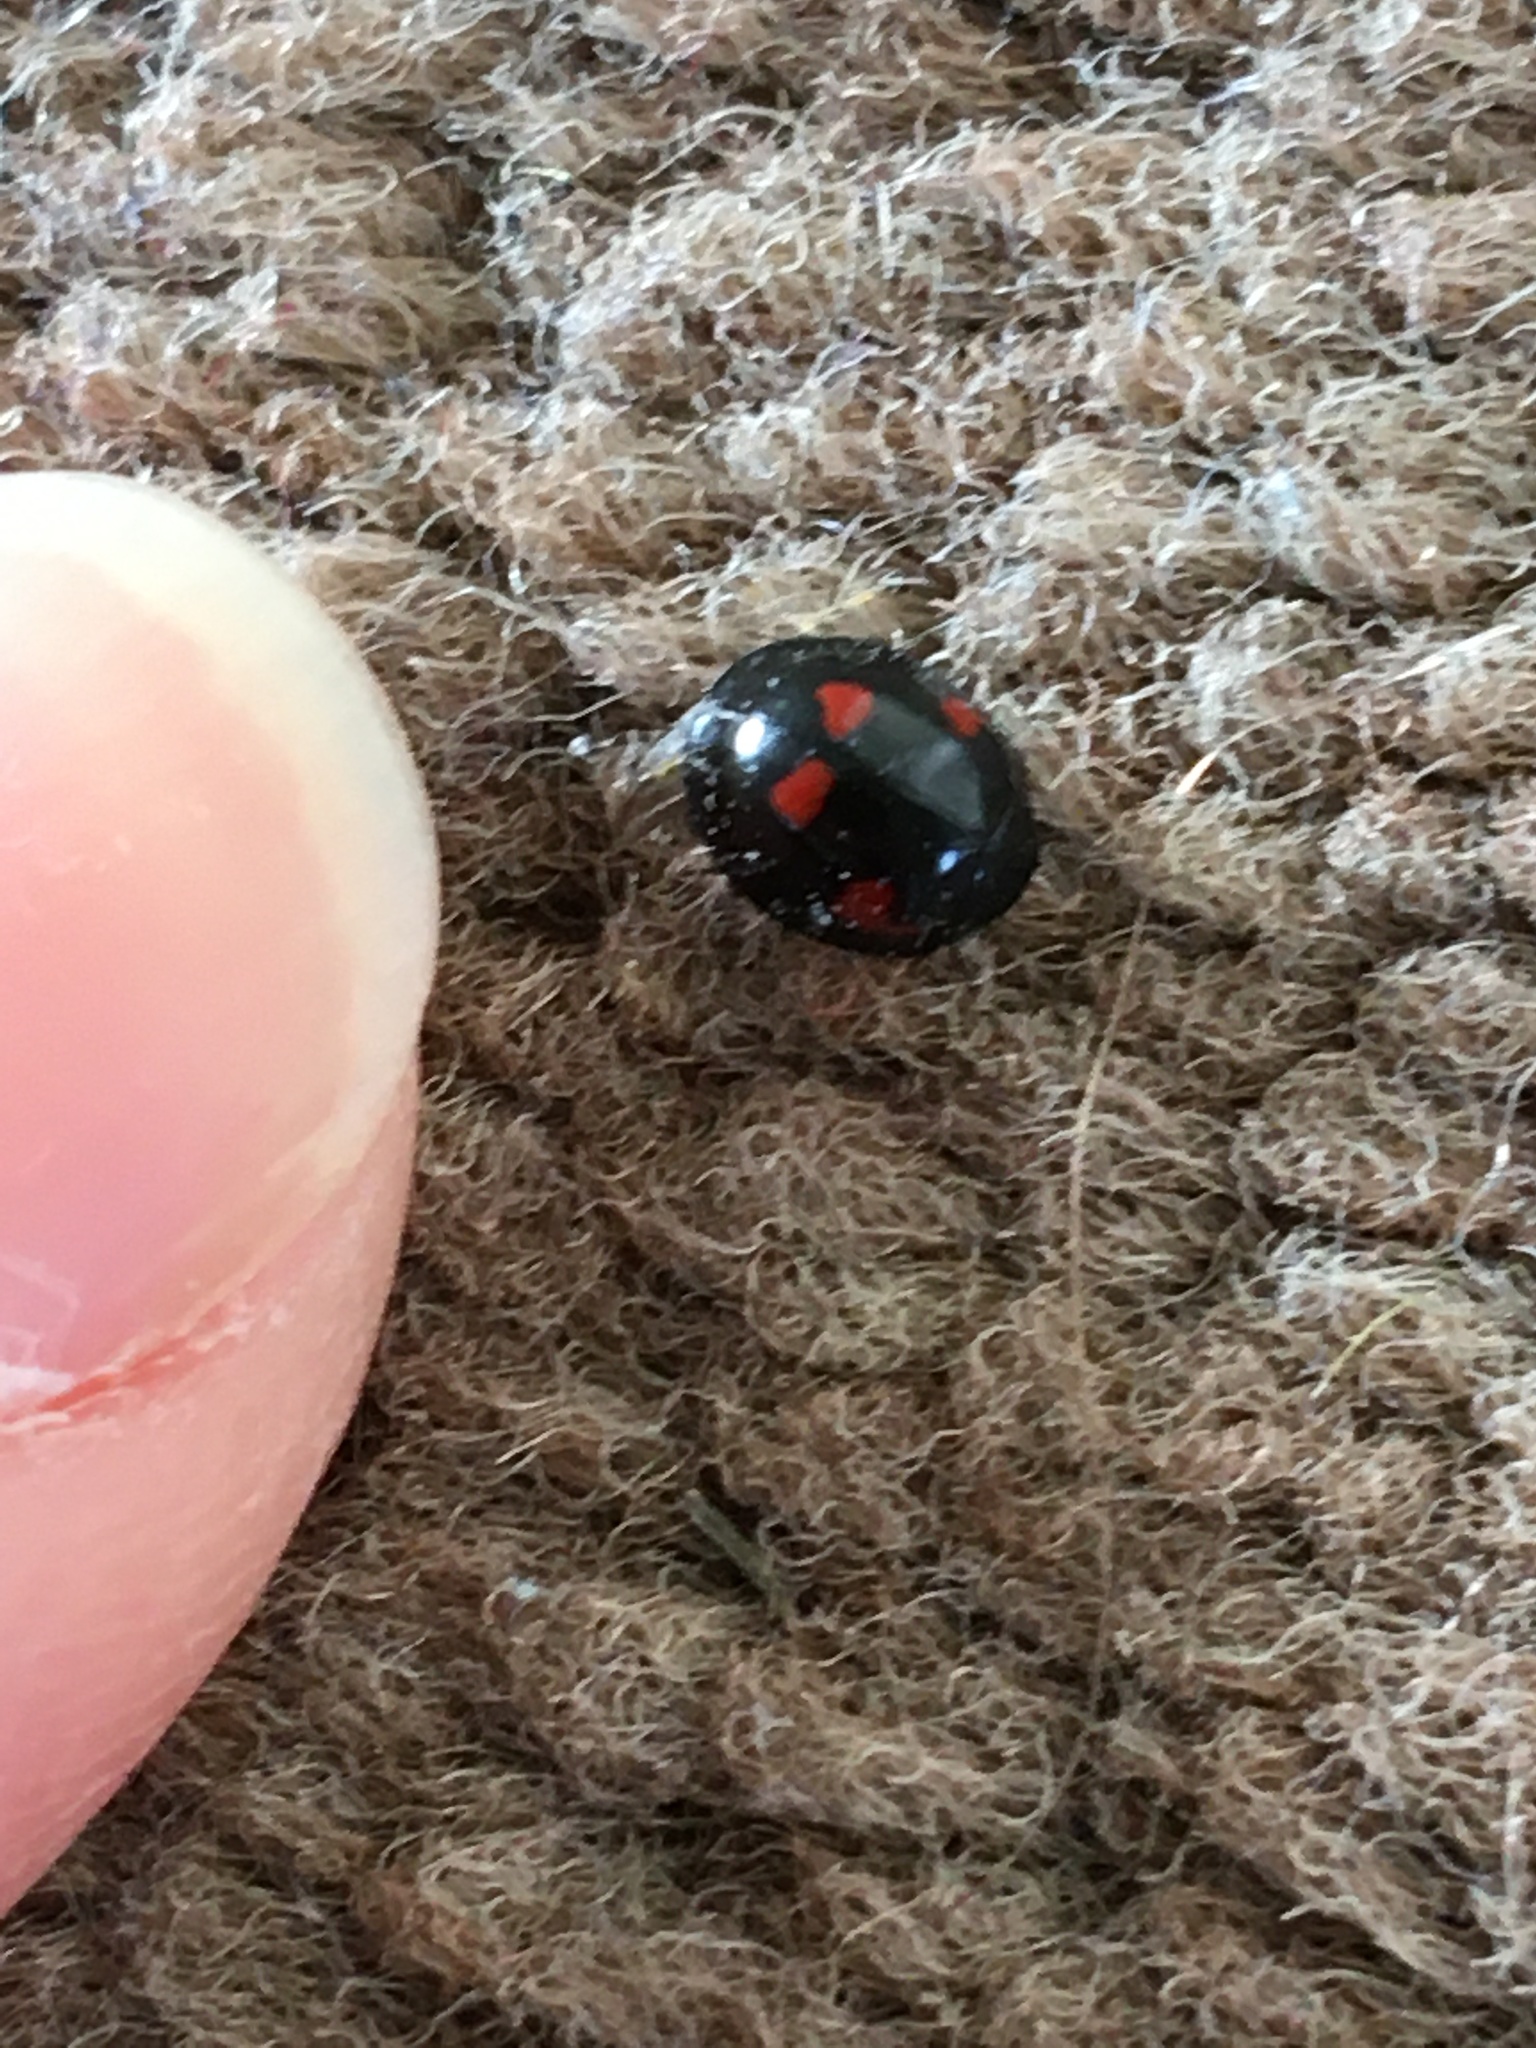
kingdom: Animalia
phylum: Arthropoda
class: Insecta
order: Coleoptera
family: Coccinellidae
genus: Brumus
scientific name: Brumus quadripustulatus
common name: Ladybird beetle
